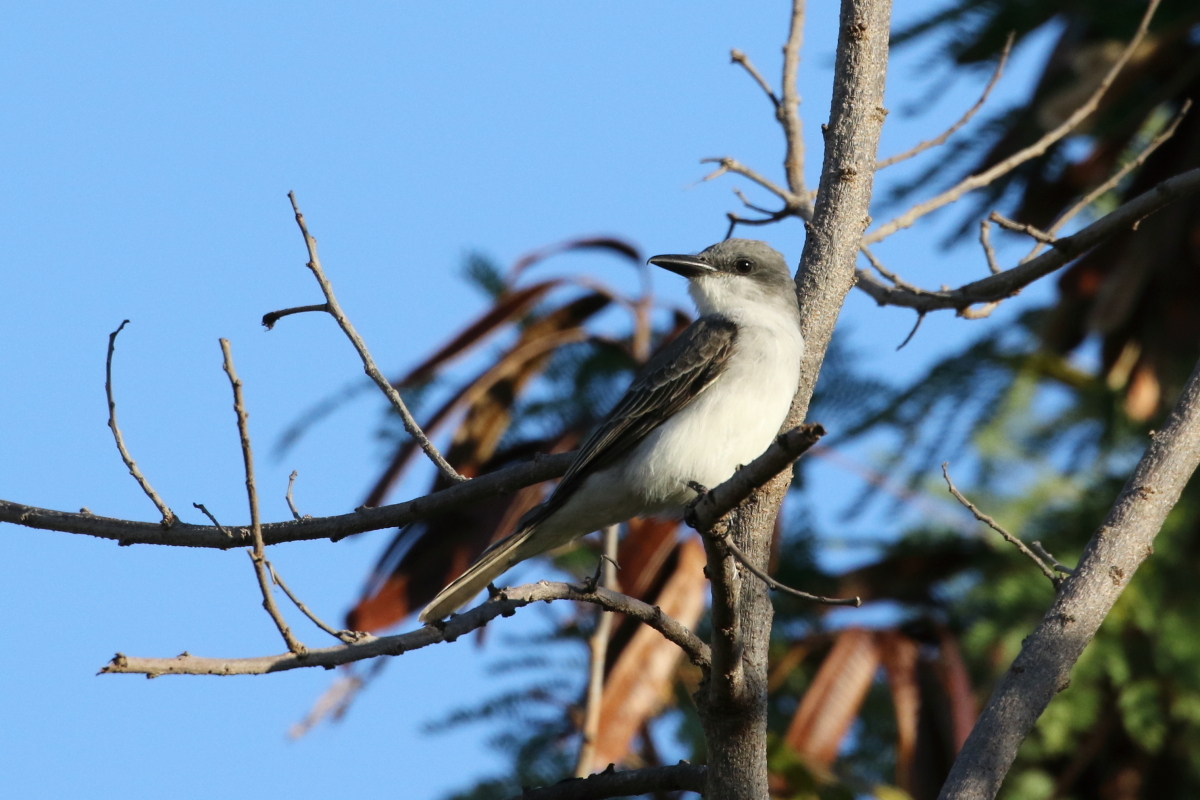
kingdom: Animalia
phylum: Chordata
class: Aves
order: Passeriformes
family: Tyrannidae
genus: Tyrannus
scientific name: Tyrannus dominicensis
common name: Gray kingbird
